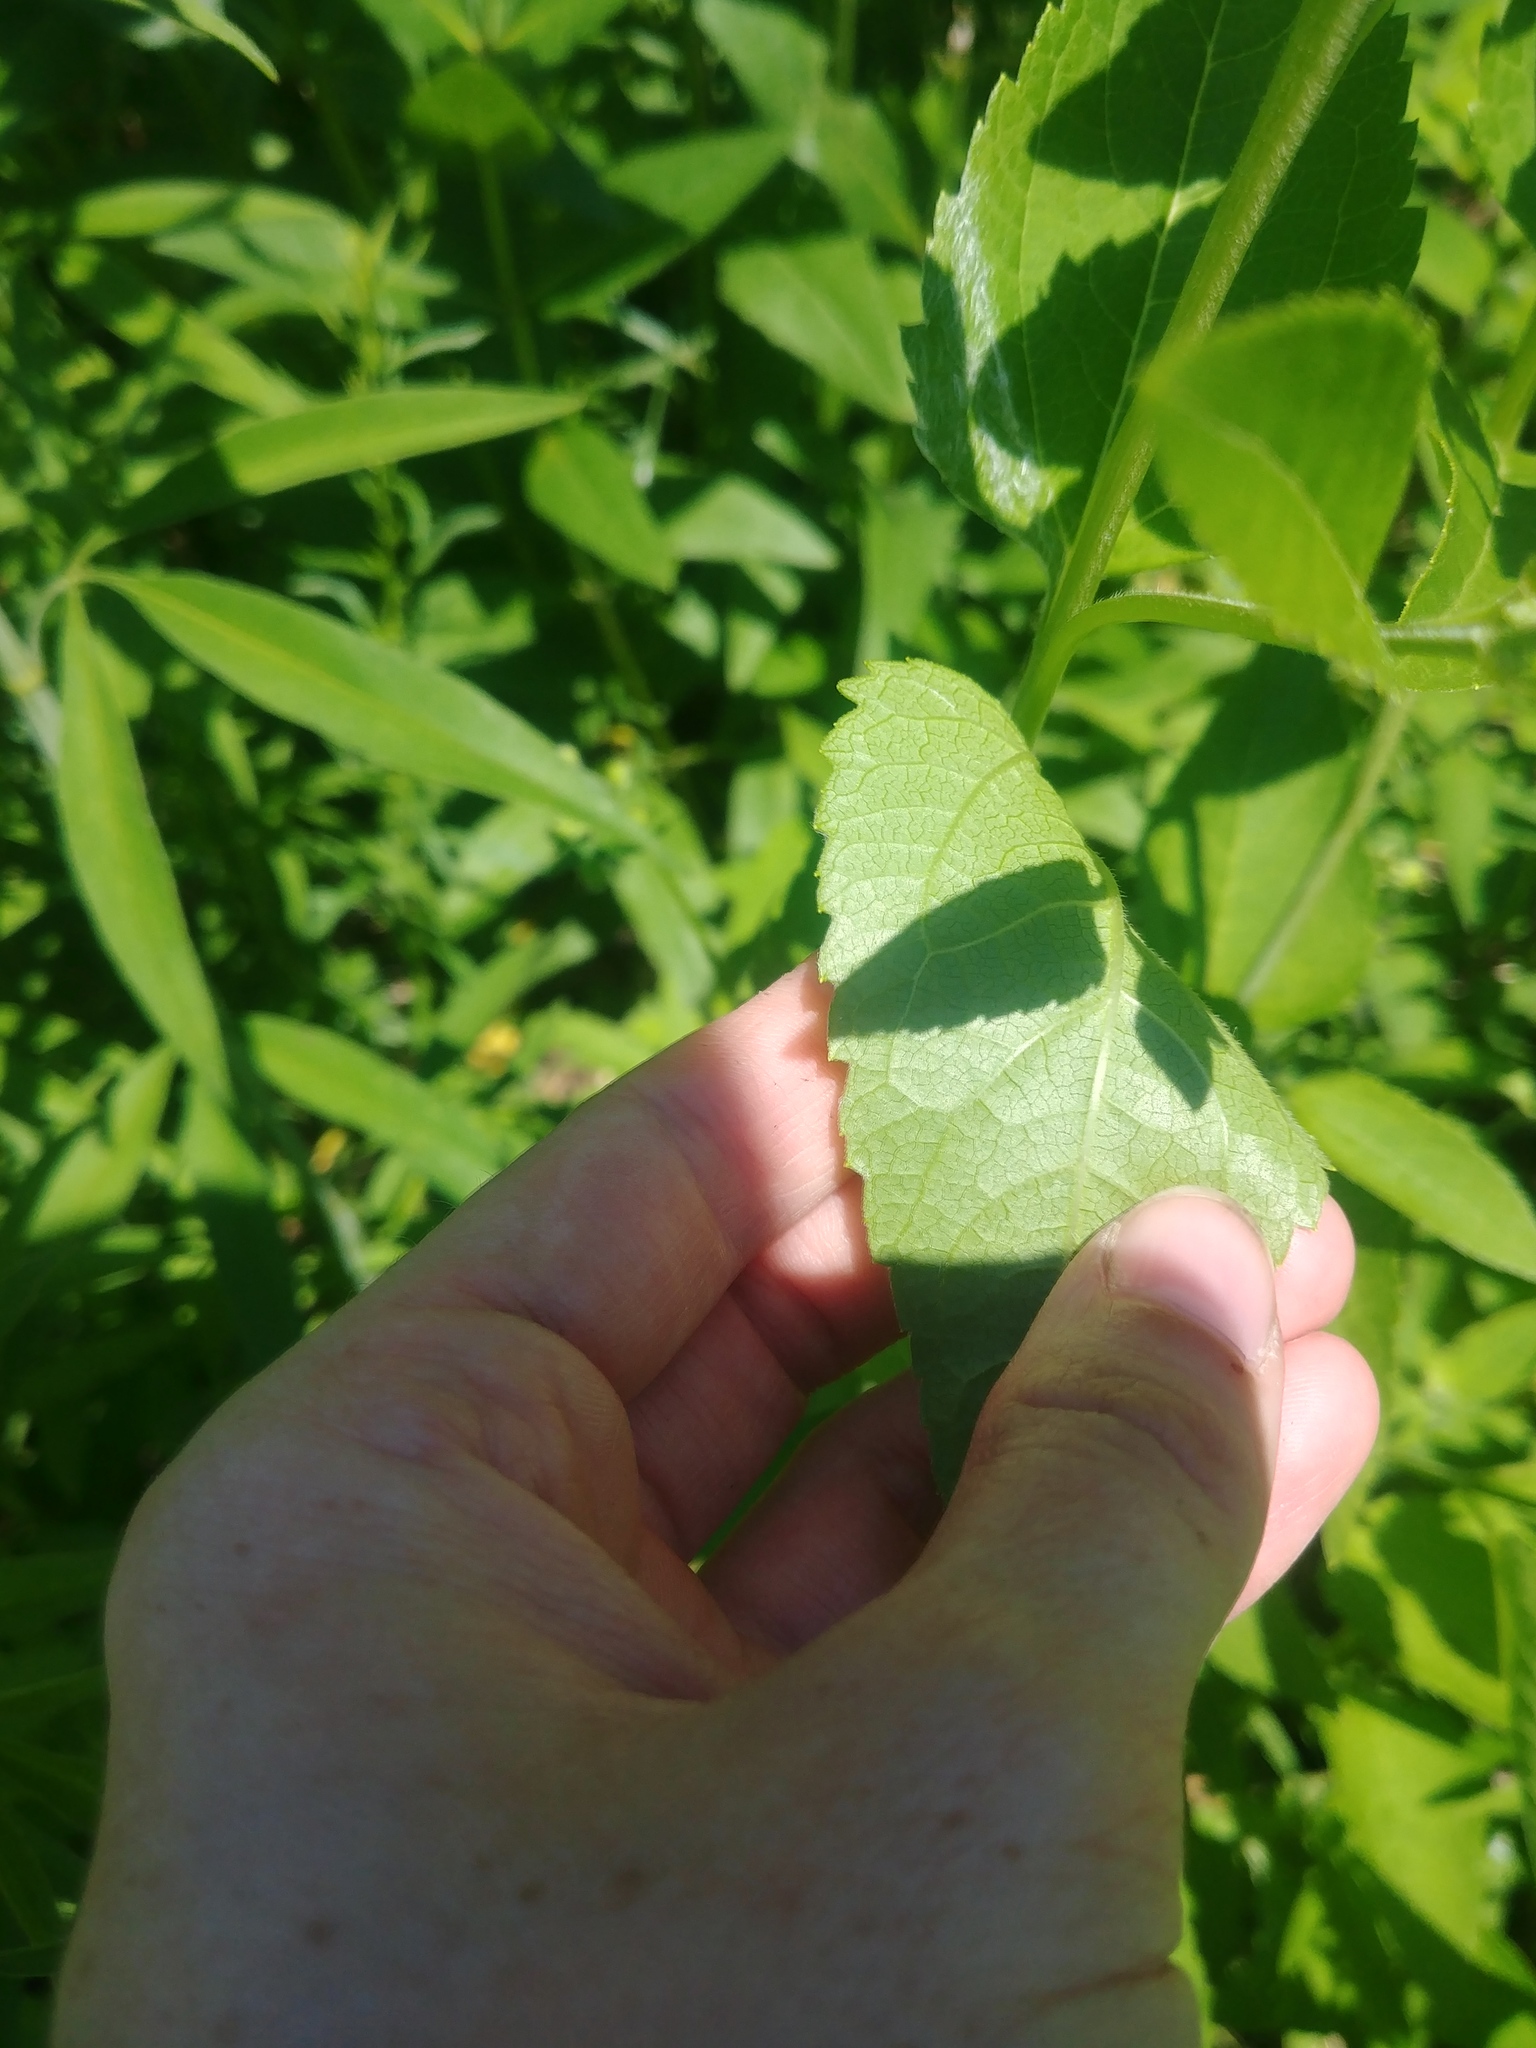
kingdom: Plantae
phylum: Tracheophyta
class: Magnoliopsida
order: Asterales
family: Asteraceae
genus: Heliopsis
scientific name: Heliopsis helianthoides
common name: False sunflower
